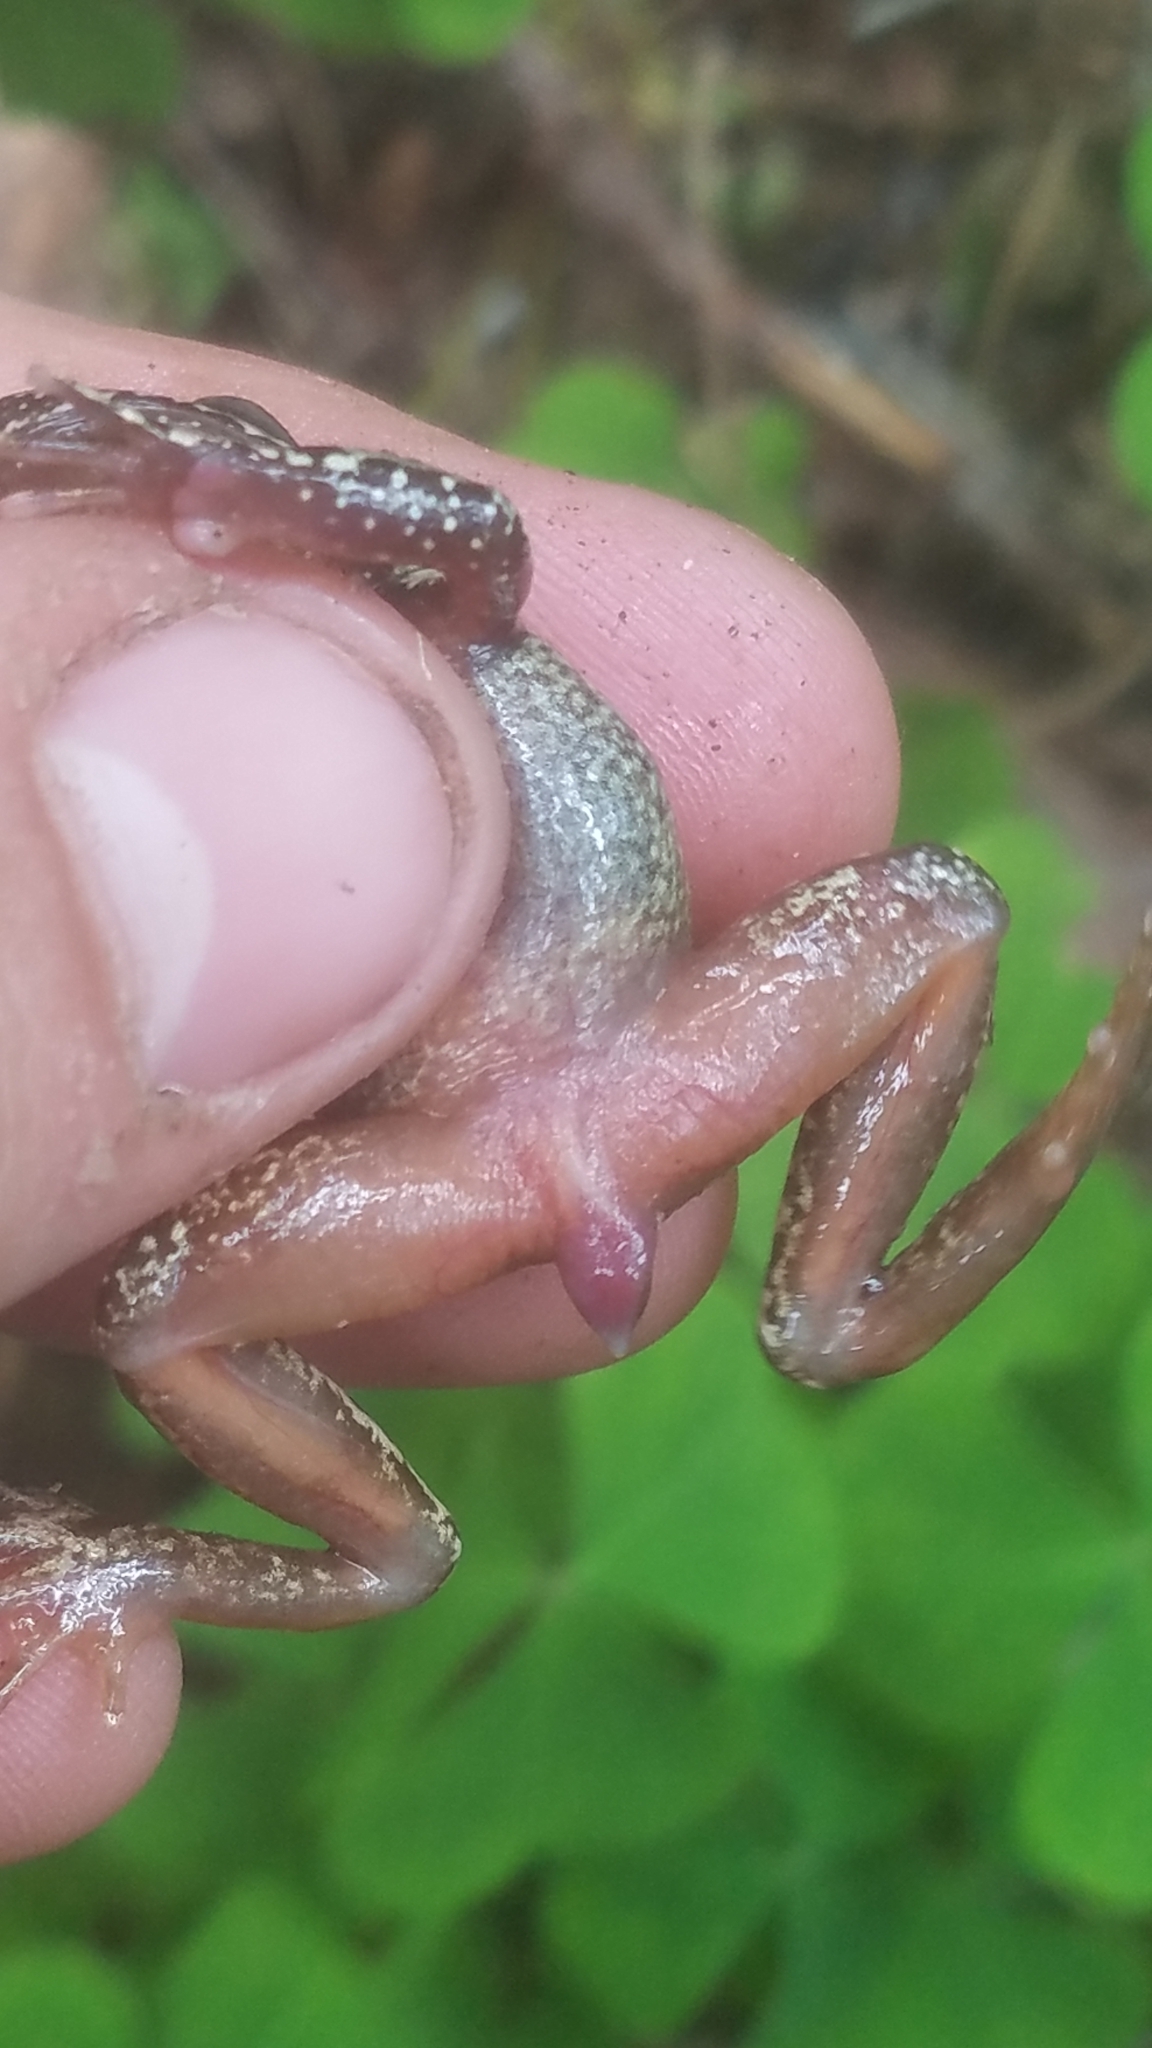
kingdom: Animalia
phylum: Chordata
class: Amphibia
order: Anura
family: Ascaphidae
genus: Ascaphus
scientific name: Ascaphus truei
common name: Tailed frog
